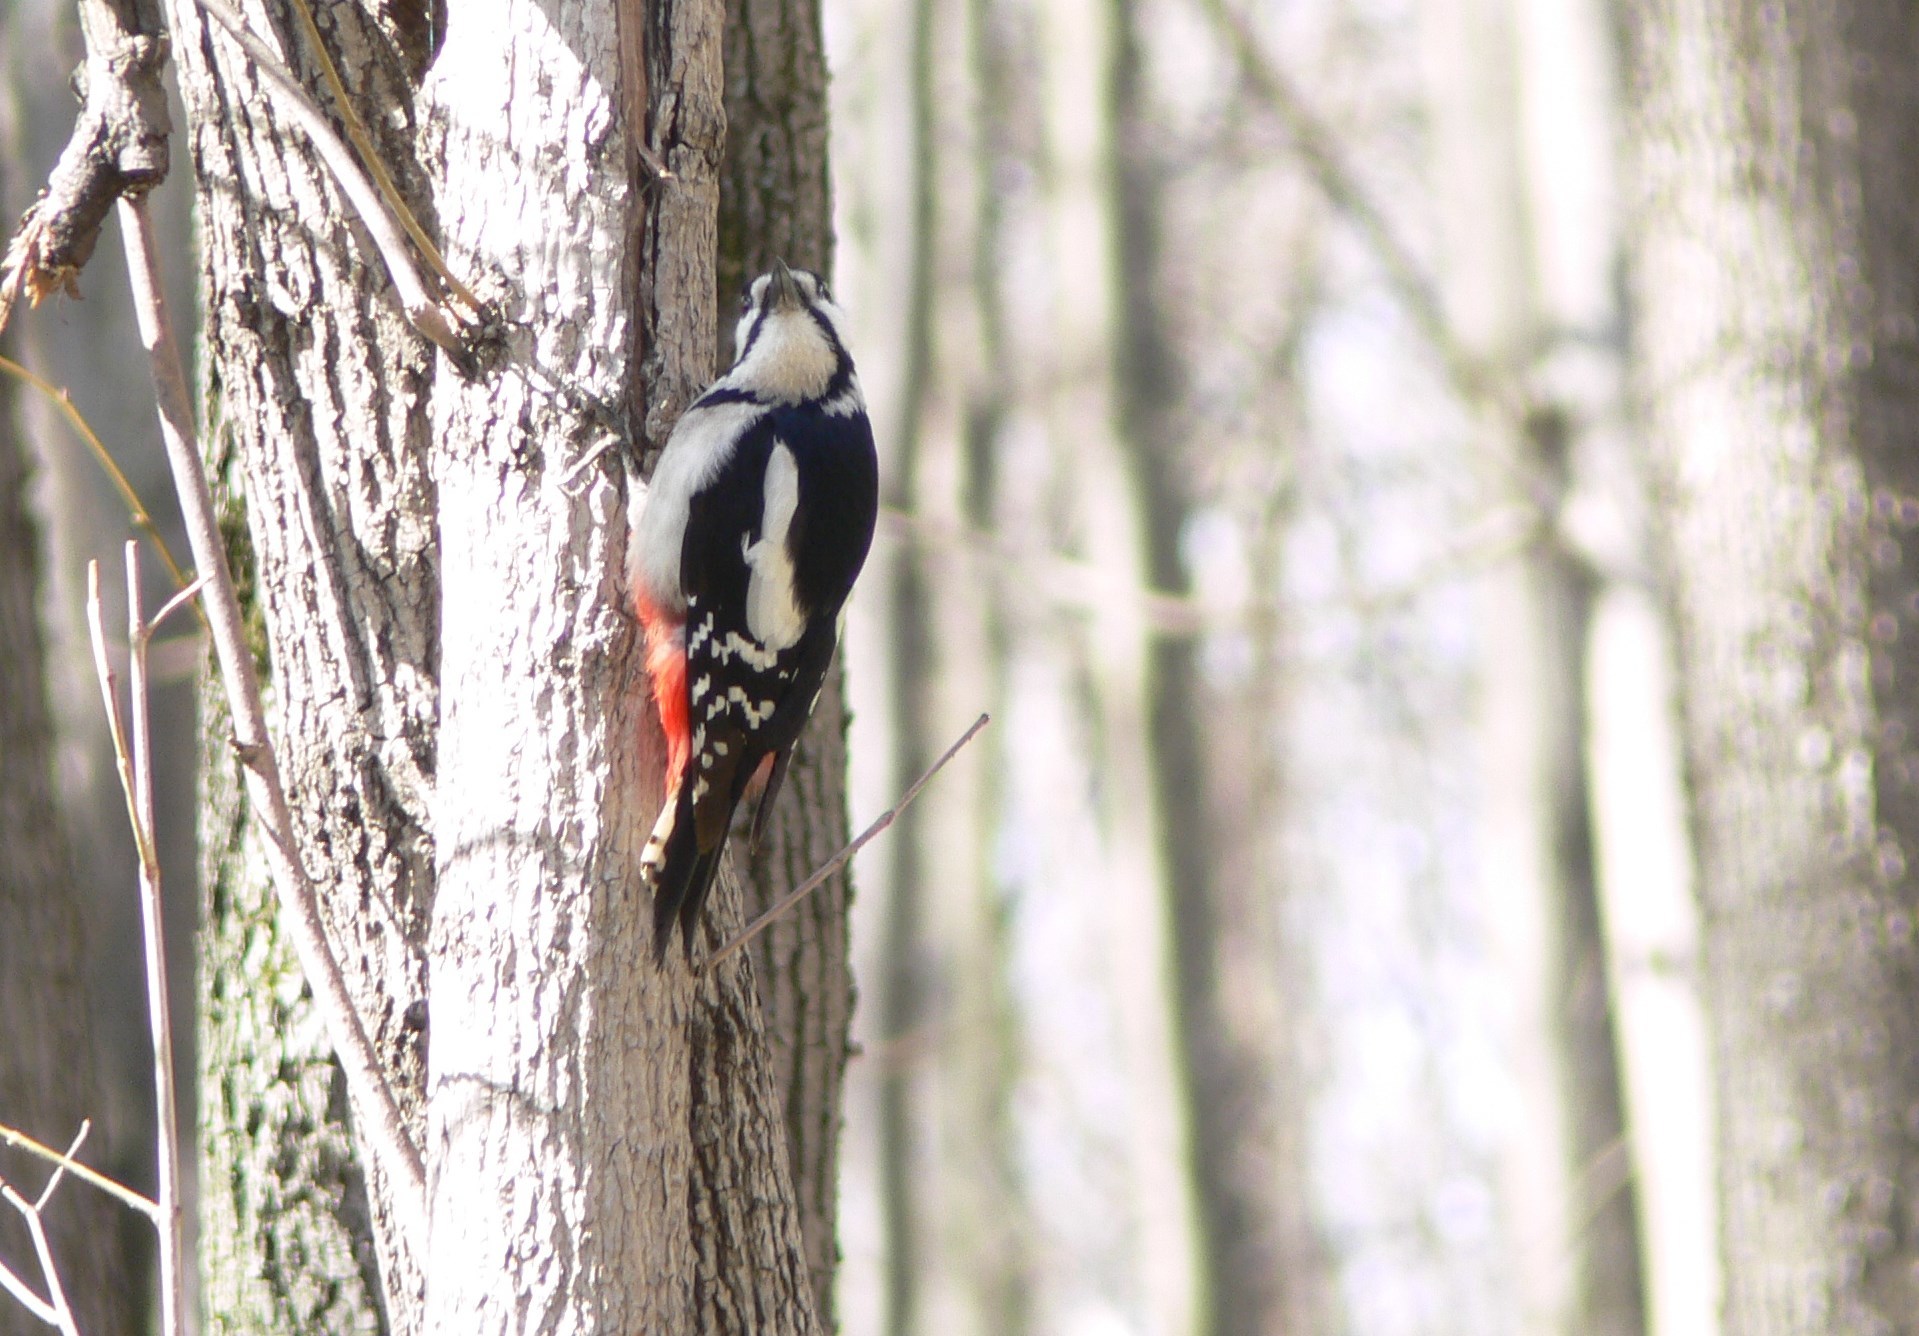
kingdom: Animalia
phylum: Chordata
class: Aves
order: Piciformes
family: Picidae
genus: Dendrocopos
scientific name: Dendrocopos major
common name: Great spotted woodpecker
